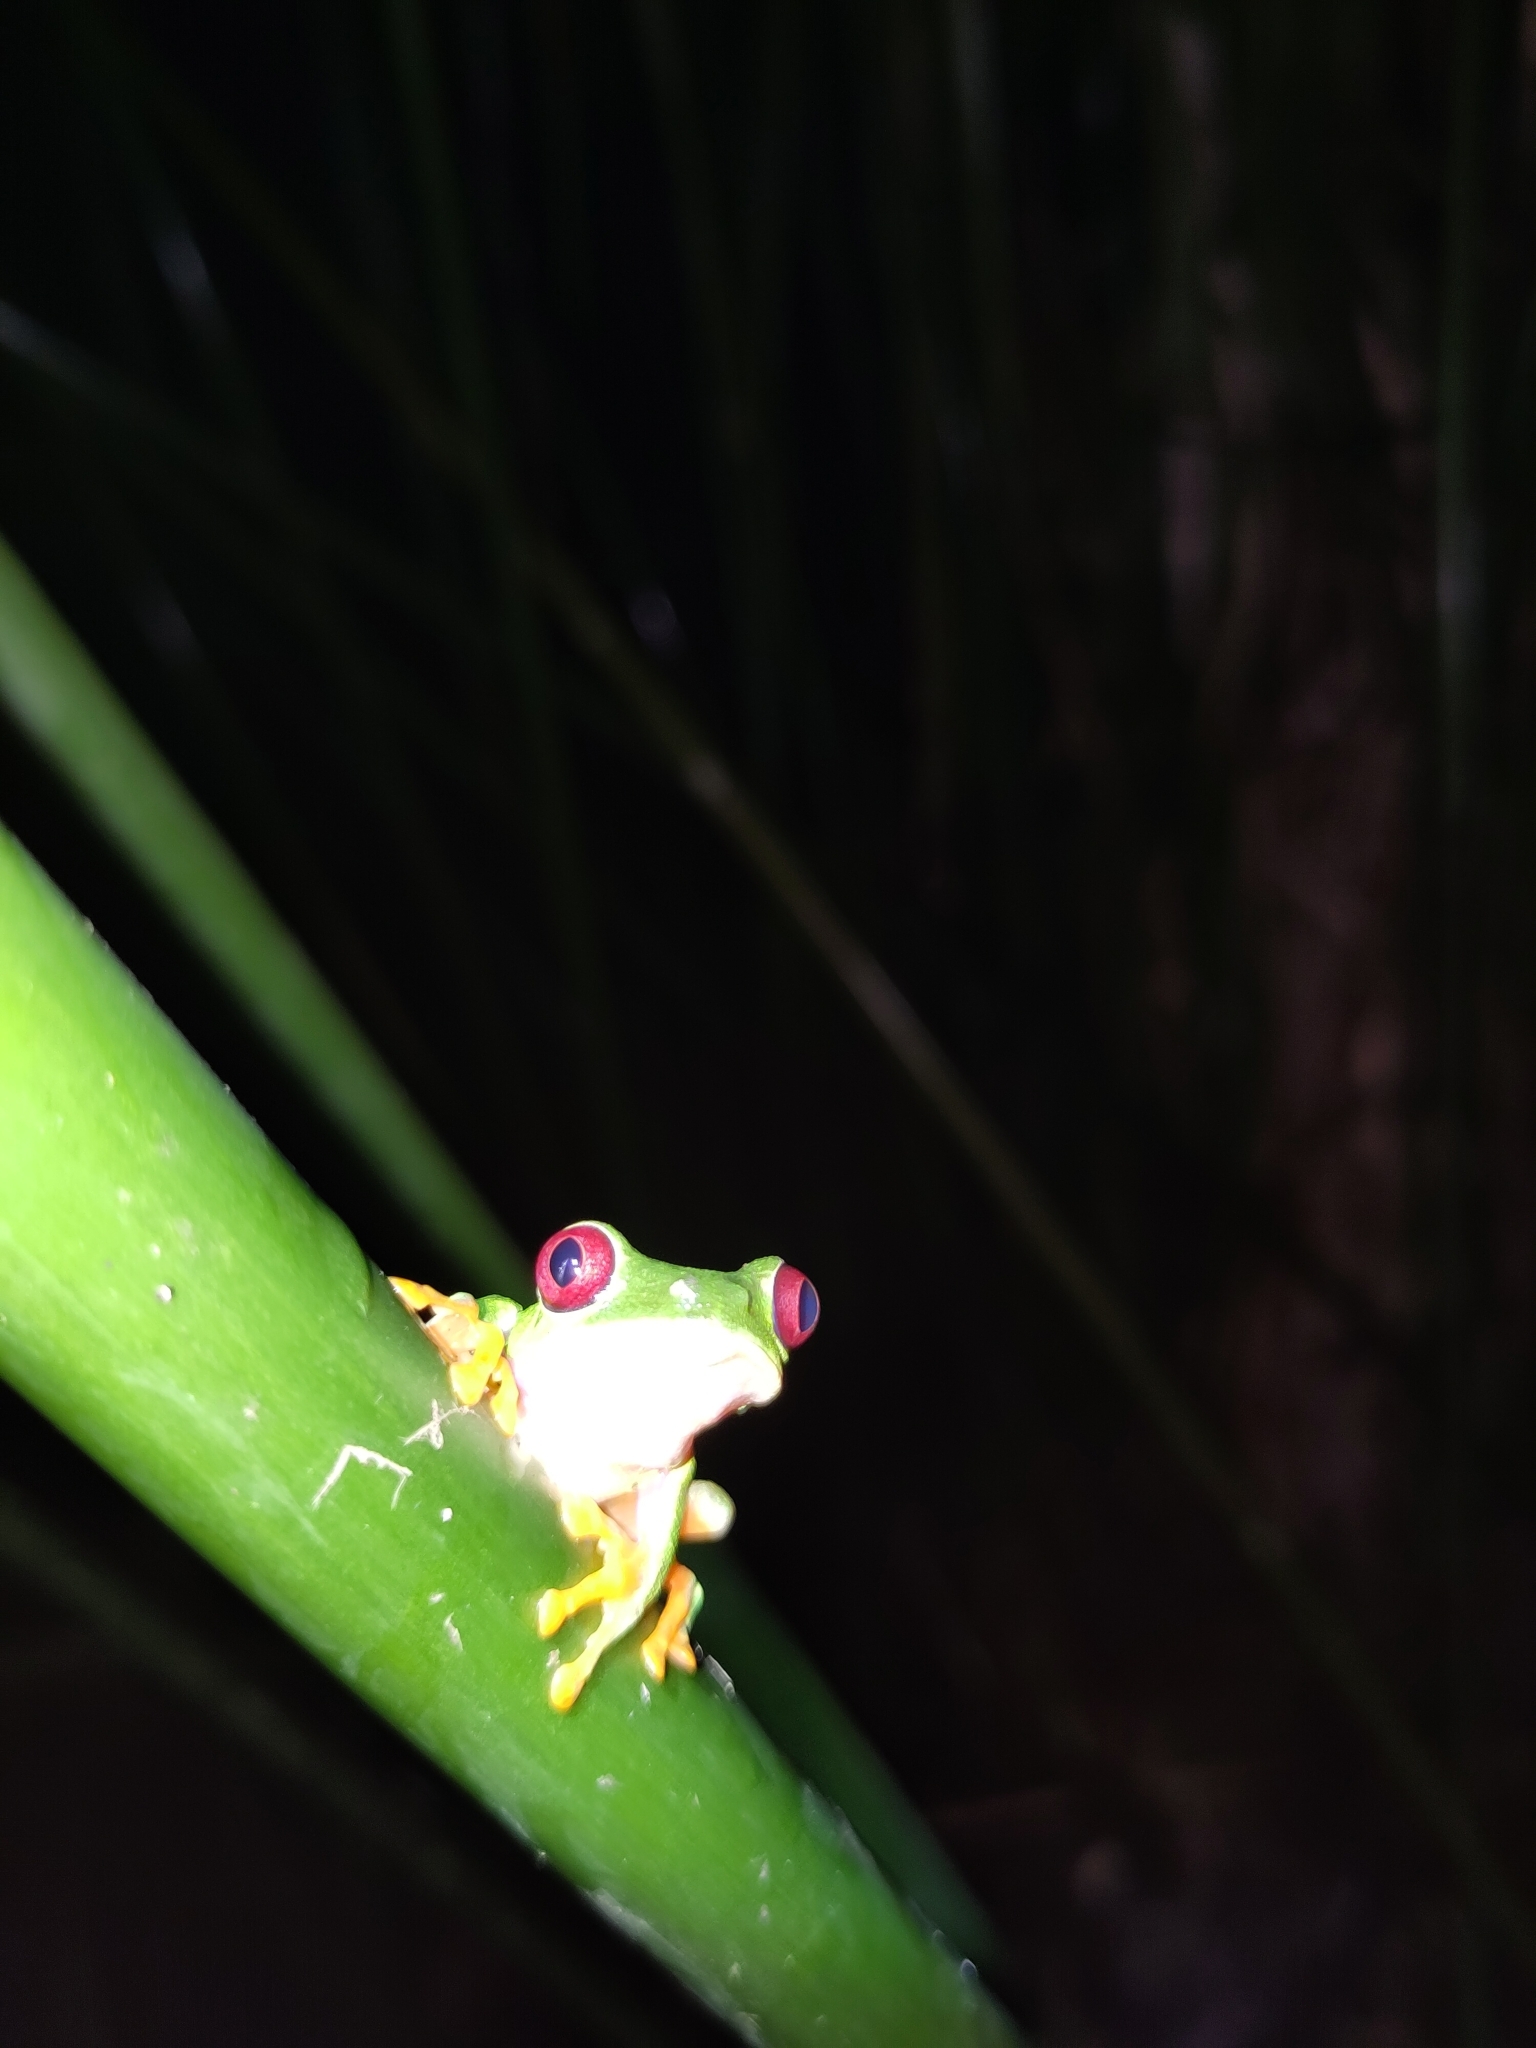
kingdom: Animalia
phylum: Chordata
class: Amphibia
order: Anura
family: Phyllomedusidae
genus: Agalychnis
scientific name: Agalychnis callidryas
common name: Red-eyed treefrog
